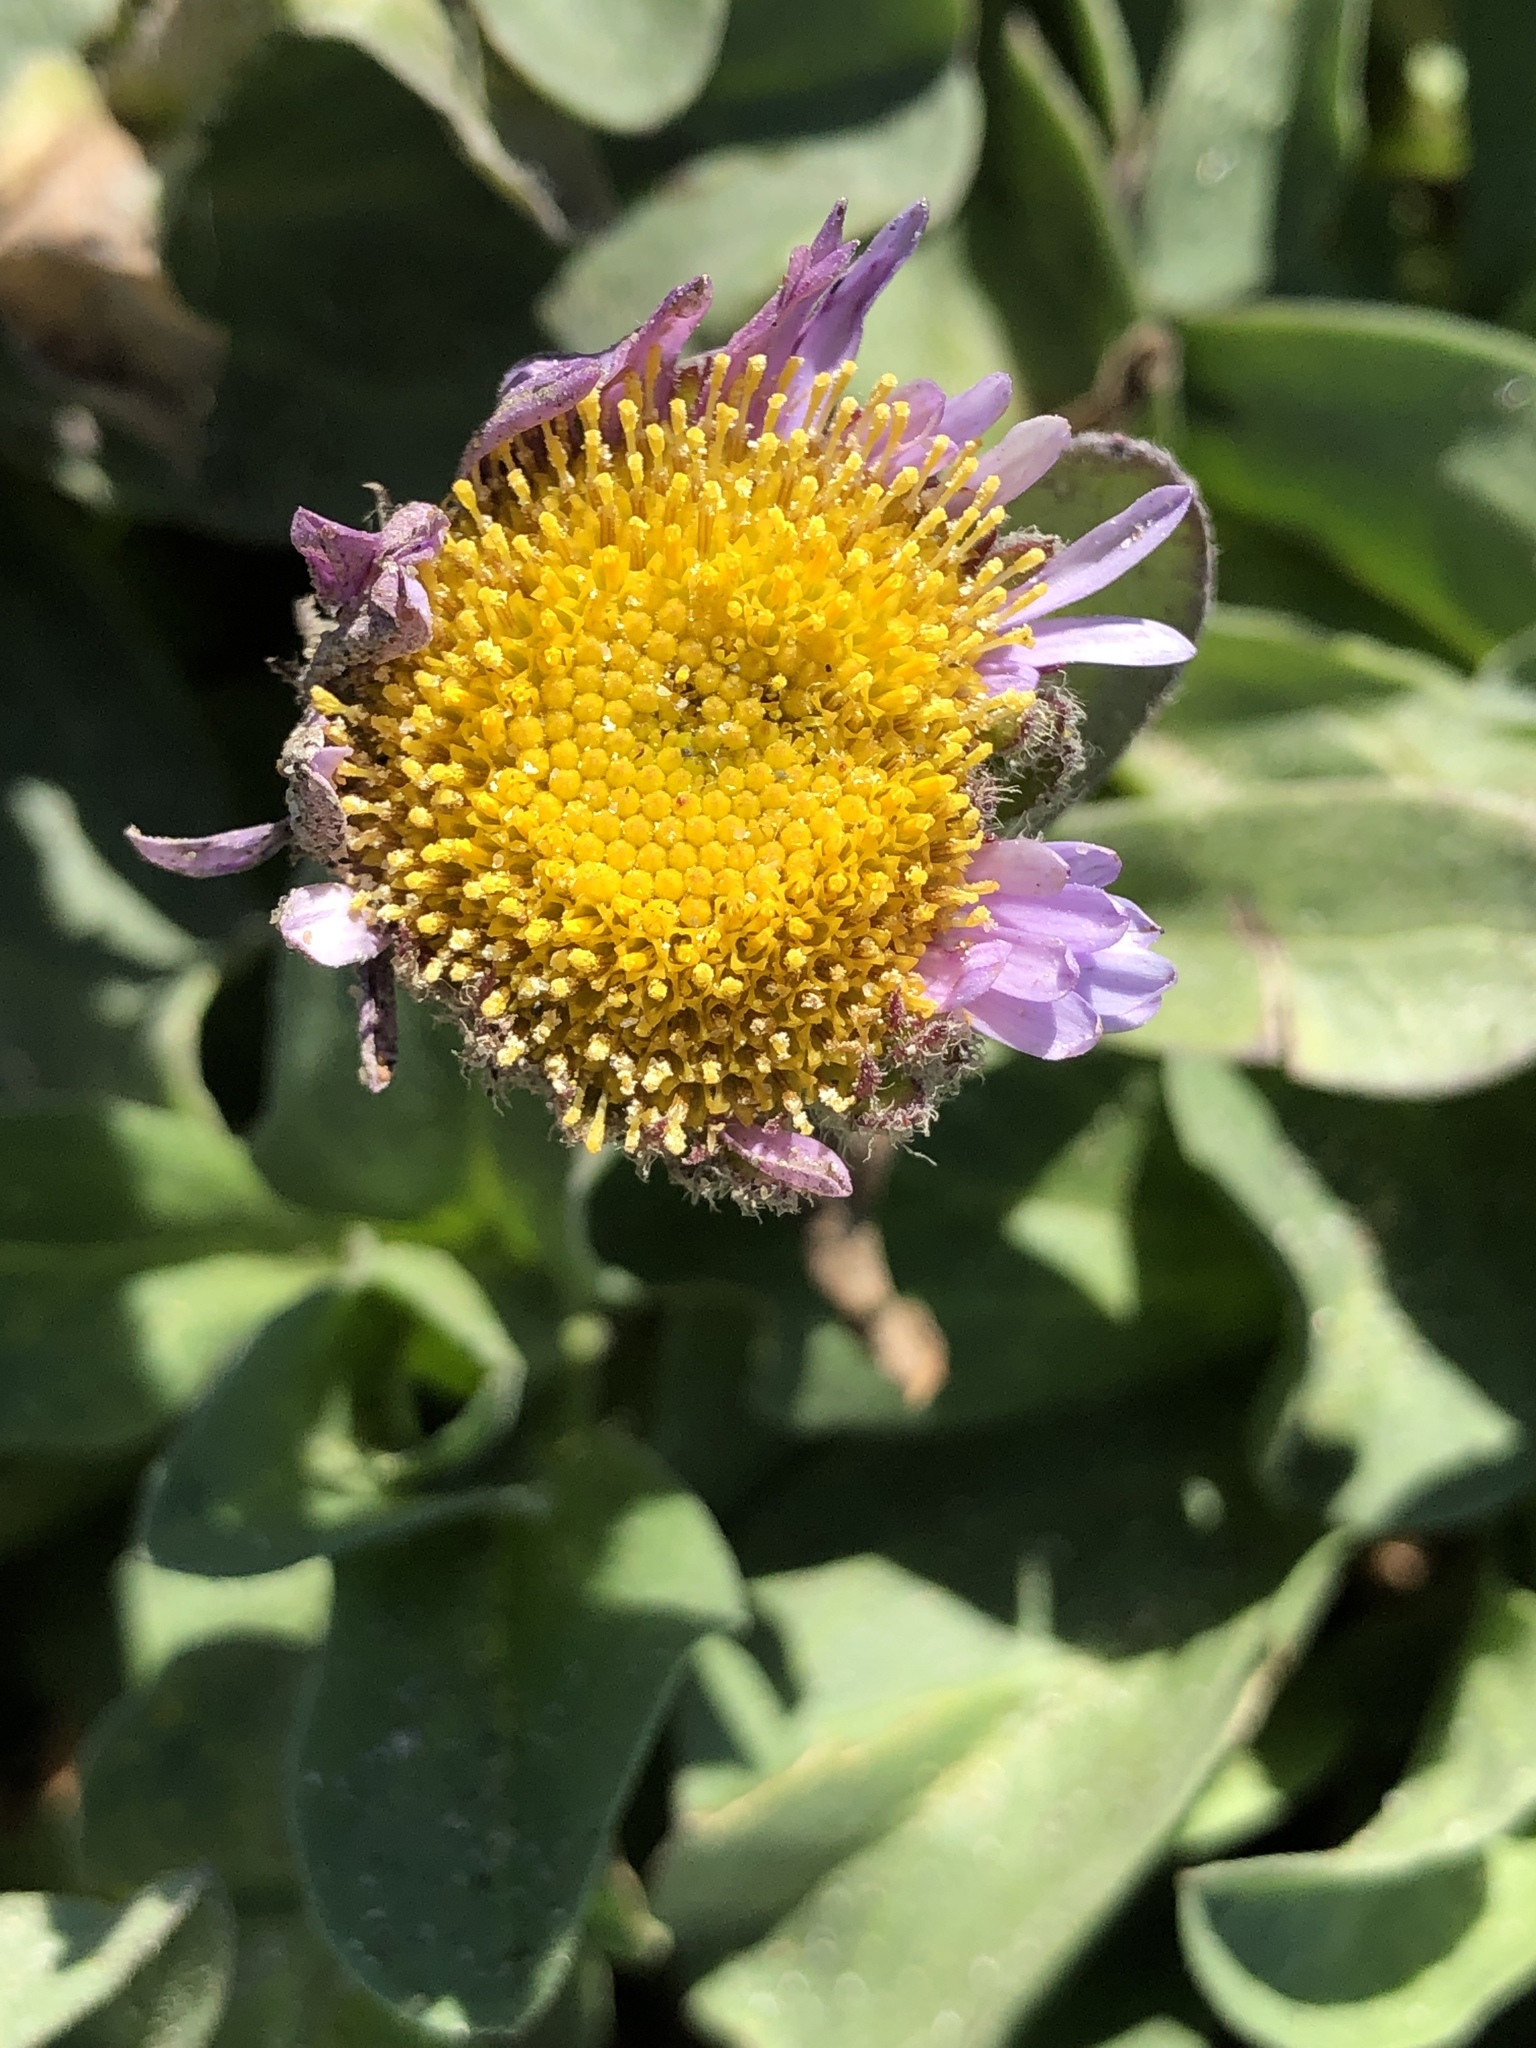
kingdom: Plantae
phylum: Tracheophyta
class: Magnoliopsida
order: Asterales
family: Asteraceae
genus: Erigeron
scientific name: Erigeron glaucus
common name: Seaside daisy
